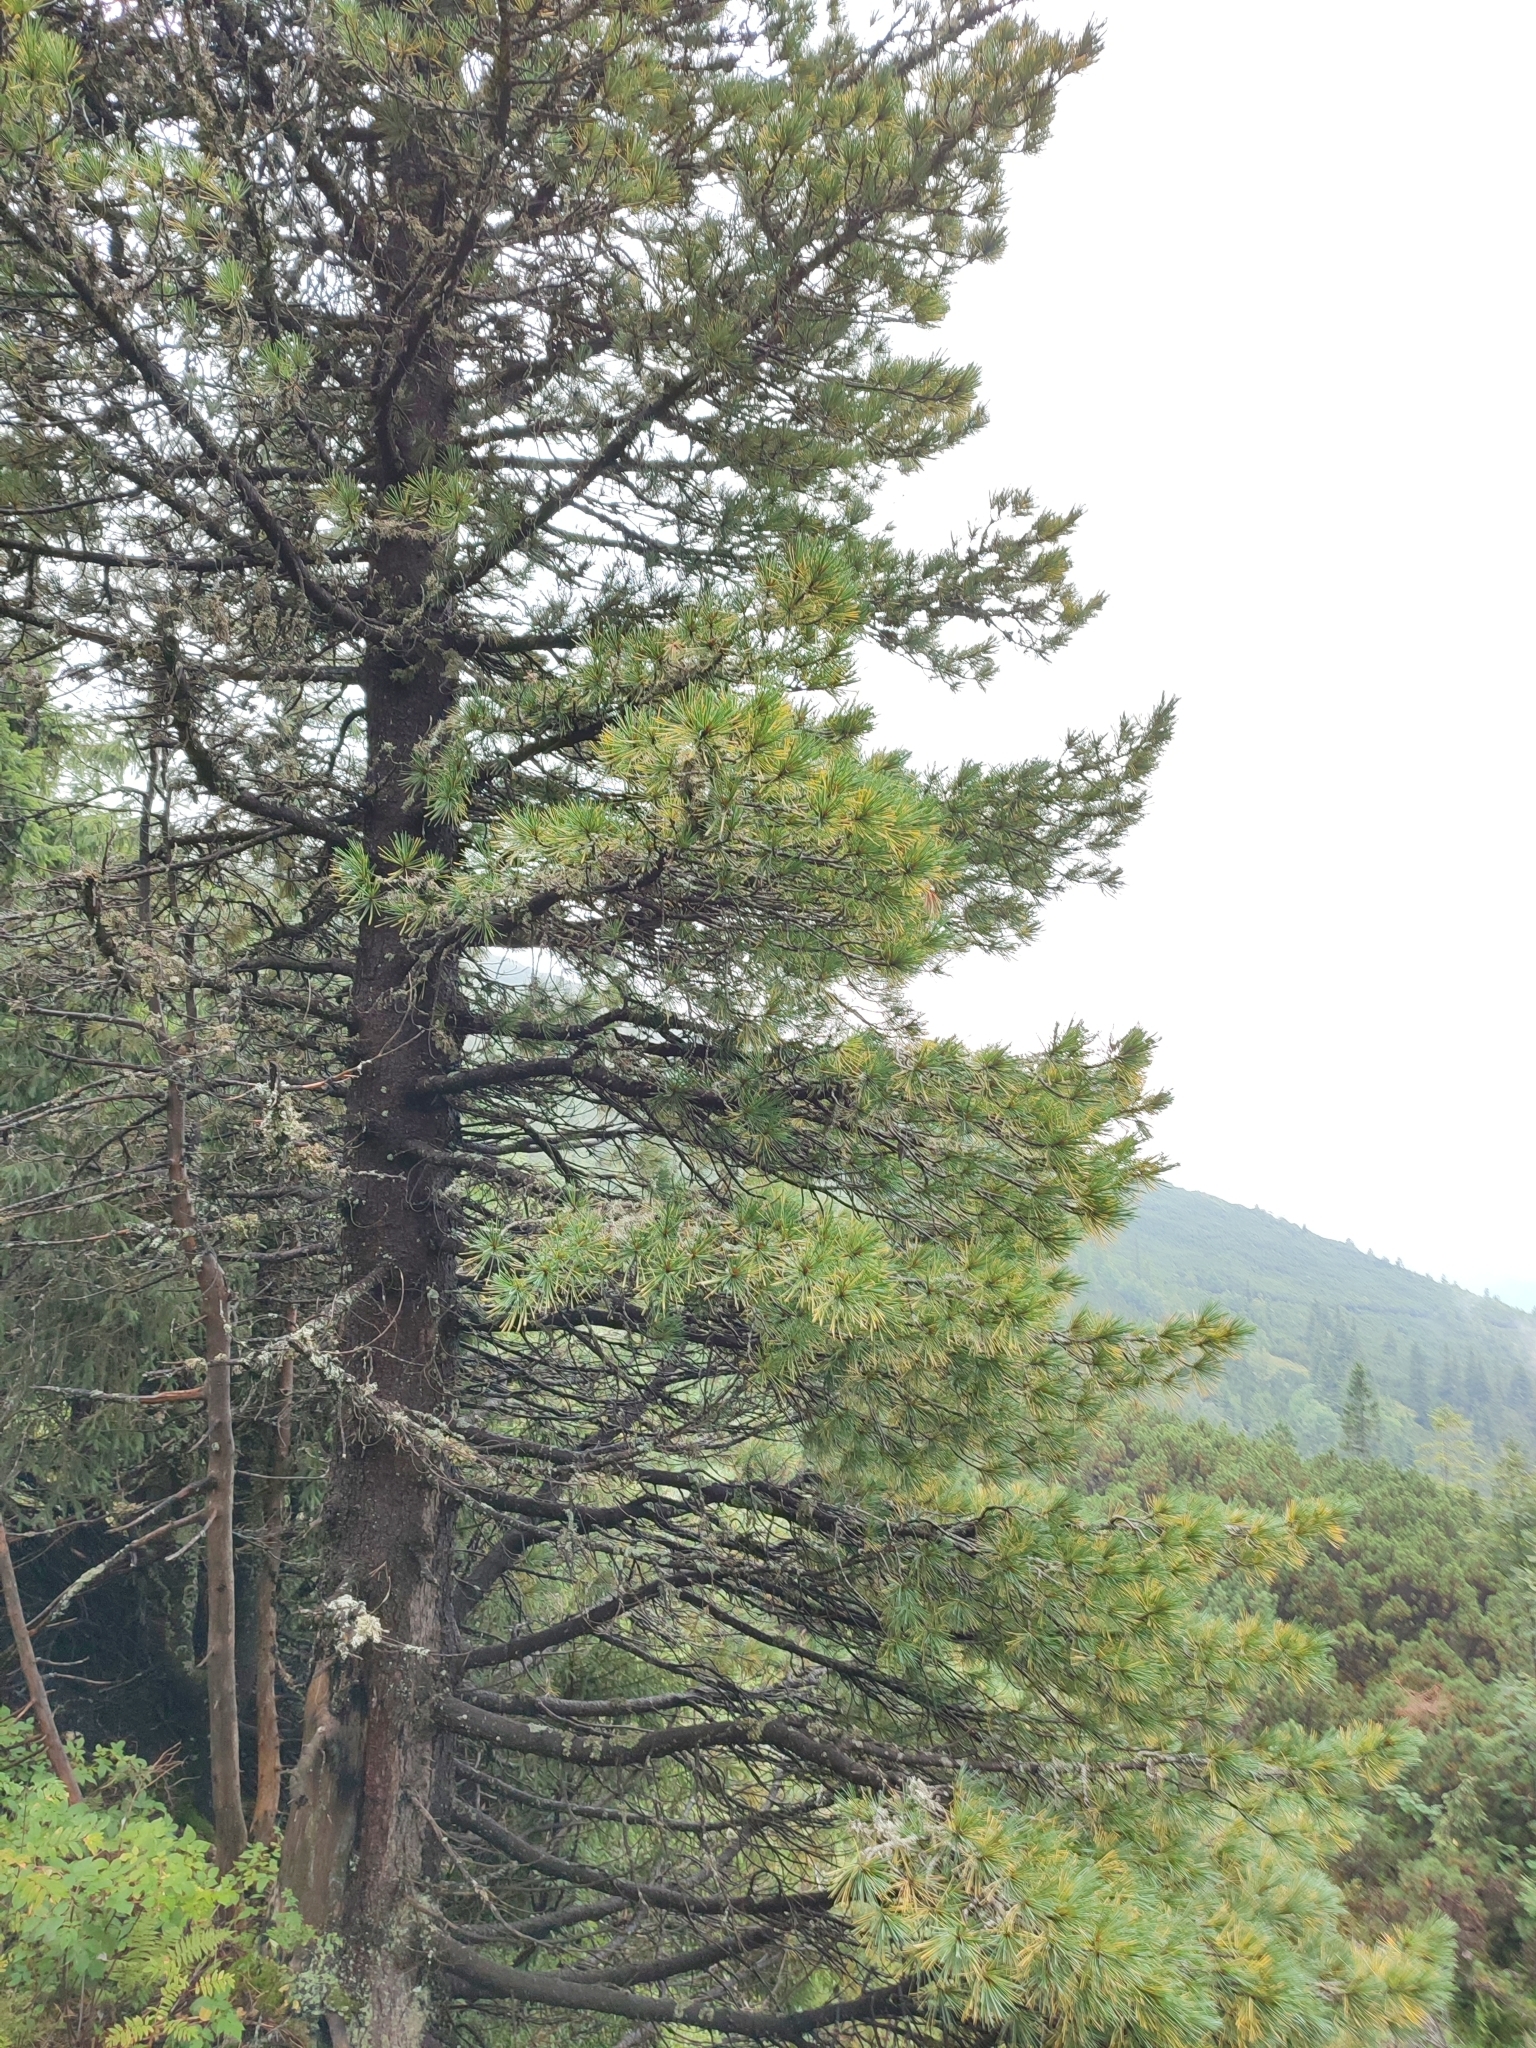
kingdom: Plantae
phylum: Tracheophyta
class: Pinopsida
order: Pinales
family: Pinaceae
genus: Pinus
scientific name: Pinus cembra
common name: Arolla pine
